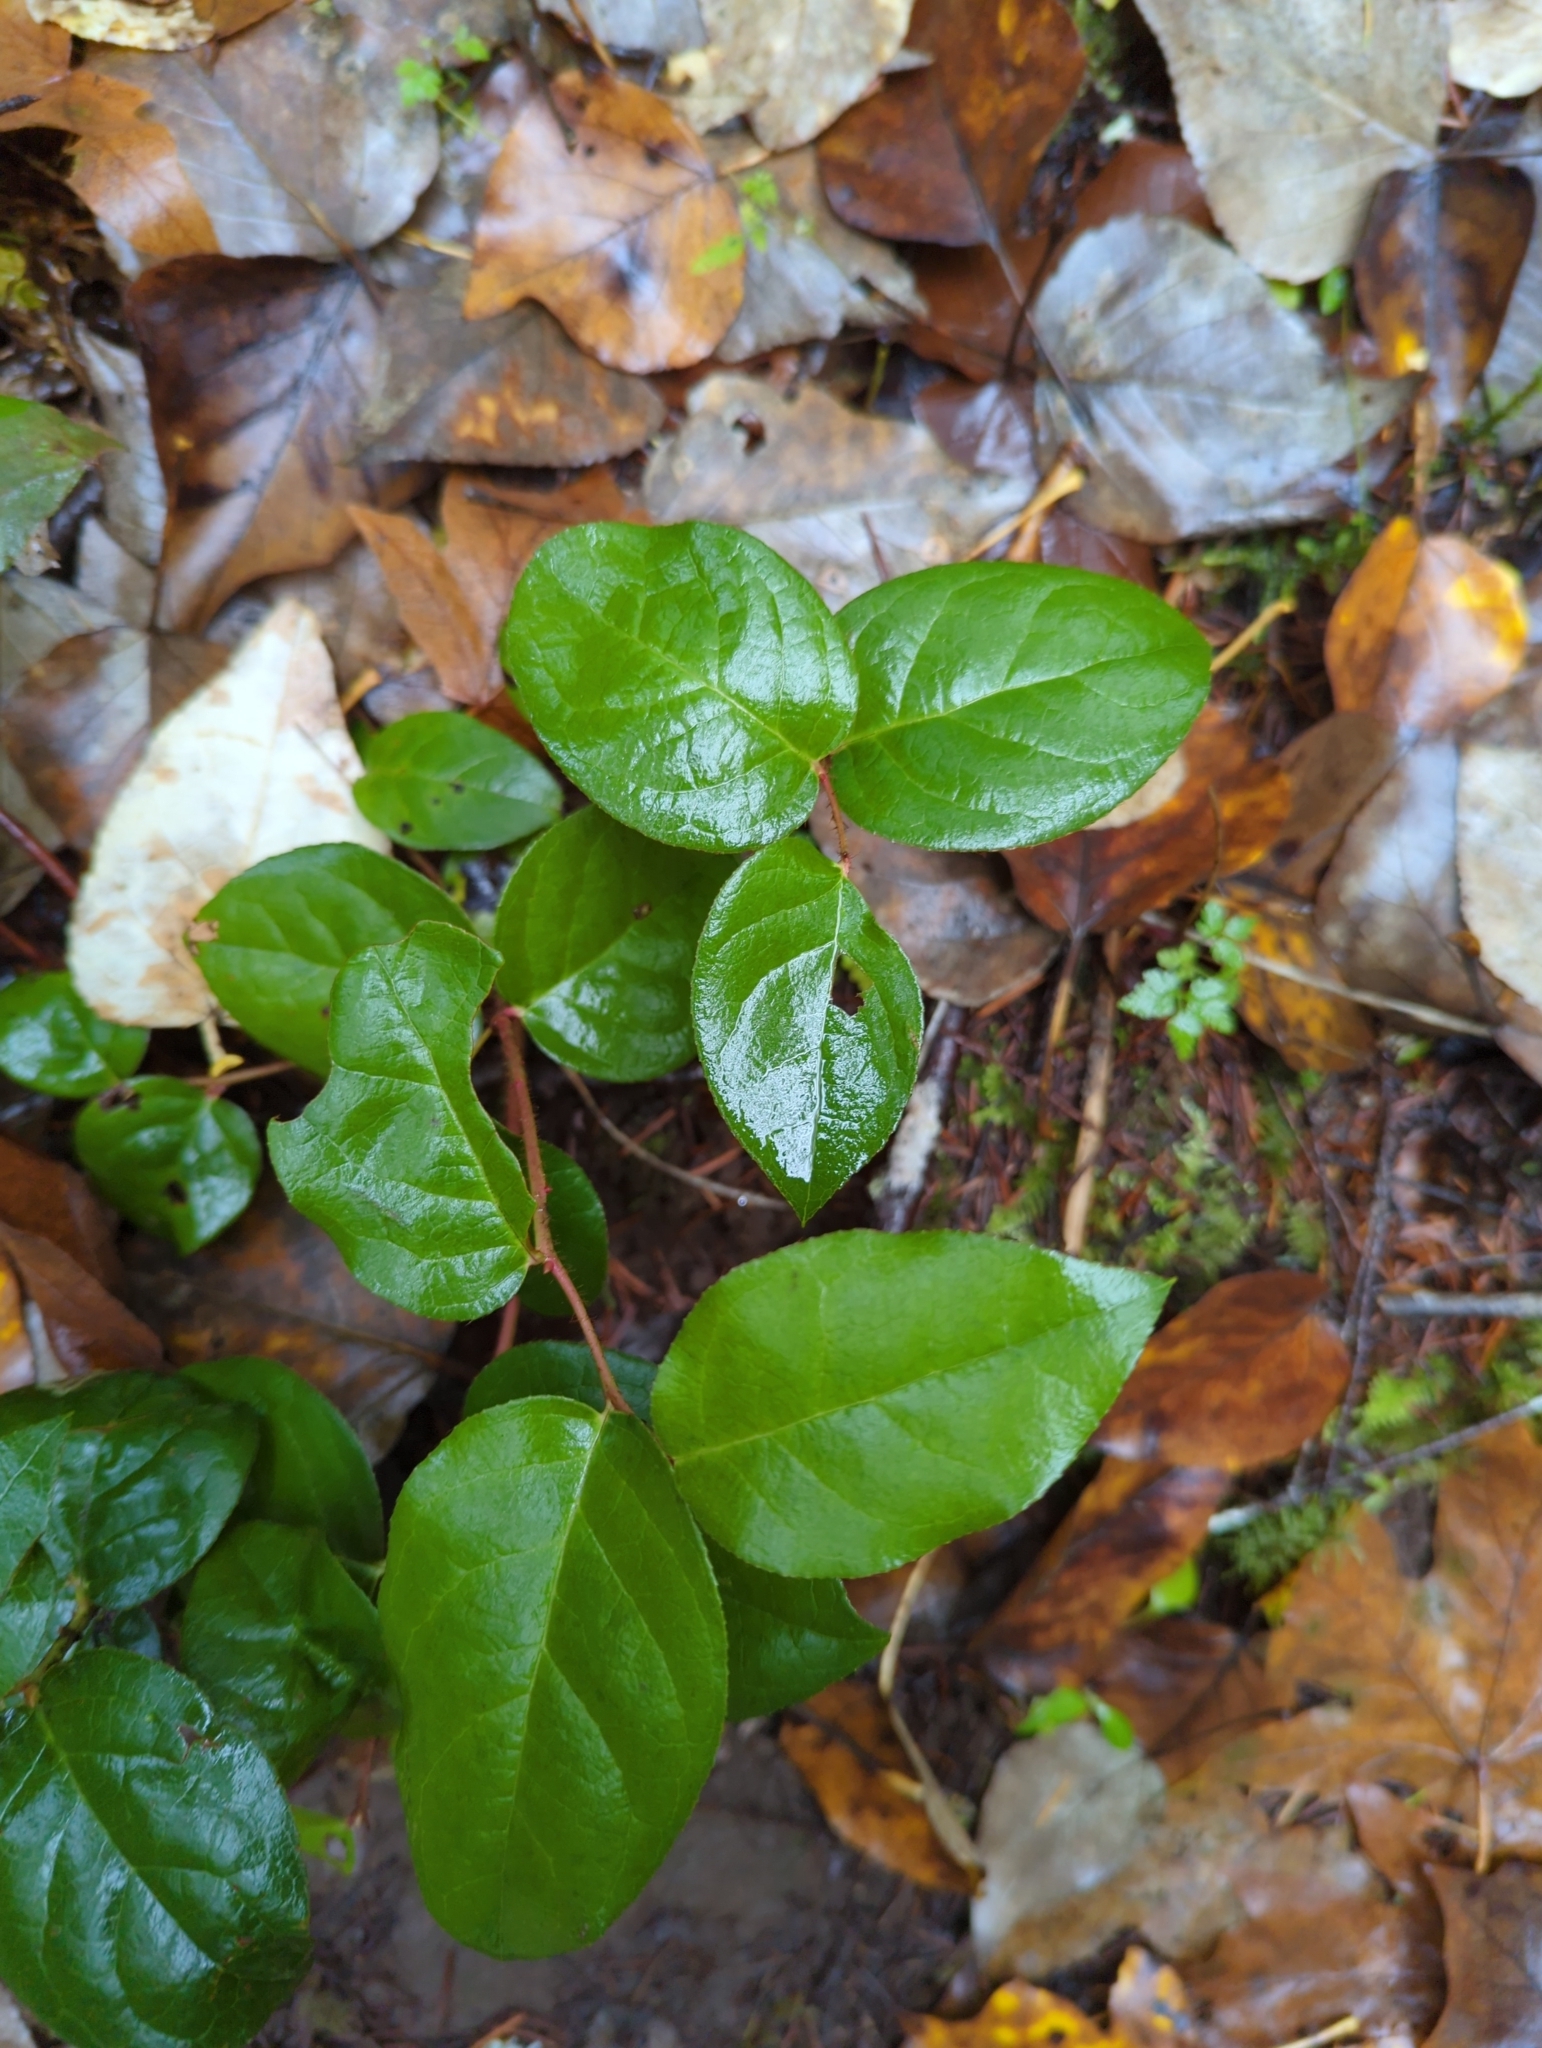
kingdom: Plantae
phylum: Tracheophyta
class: Magnoliopsida
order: Ericales
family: Ericaceae
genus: Gaultheria
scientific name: Gaultheria shallon
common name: Shallon
